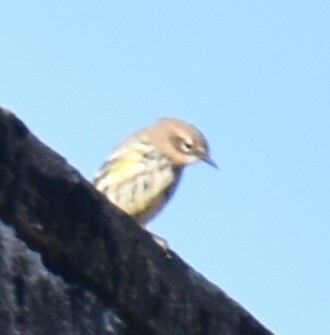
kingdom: Animalia
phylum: Chordata
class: Aves
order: Passeriformes
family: Parulidae
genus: Setophaga
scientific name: Setophaga coronata
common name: Myrtle warbler
